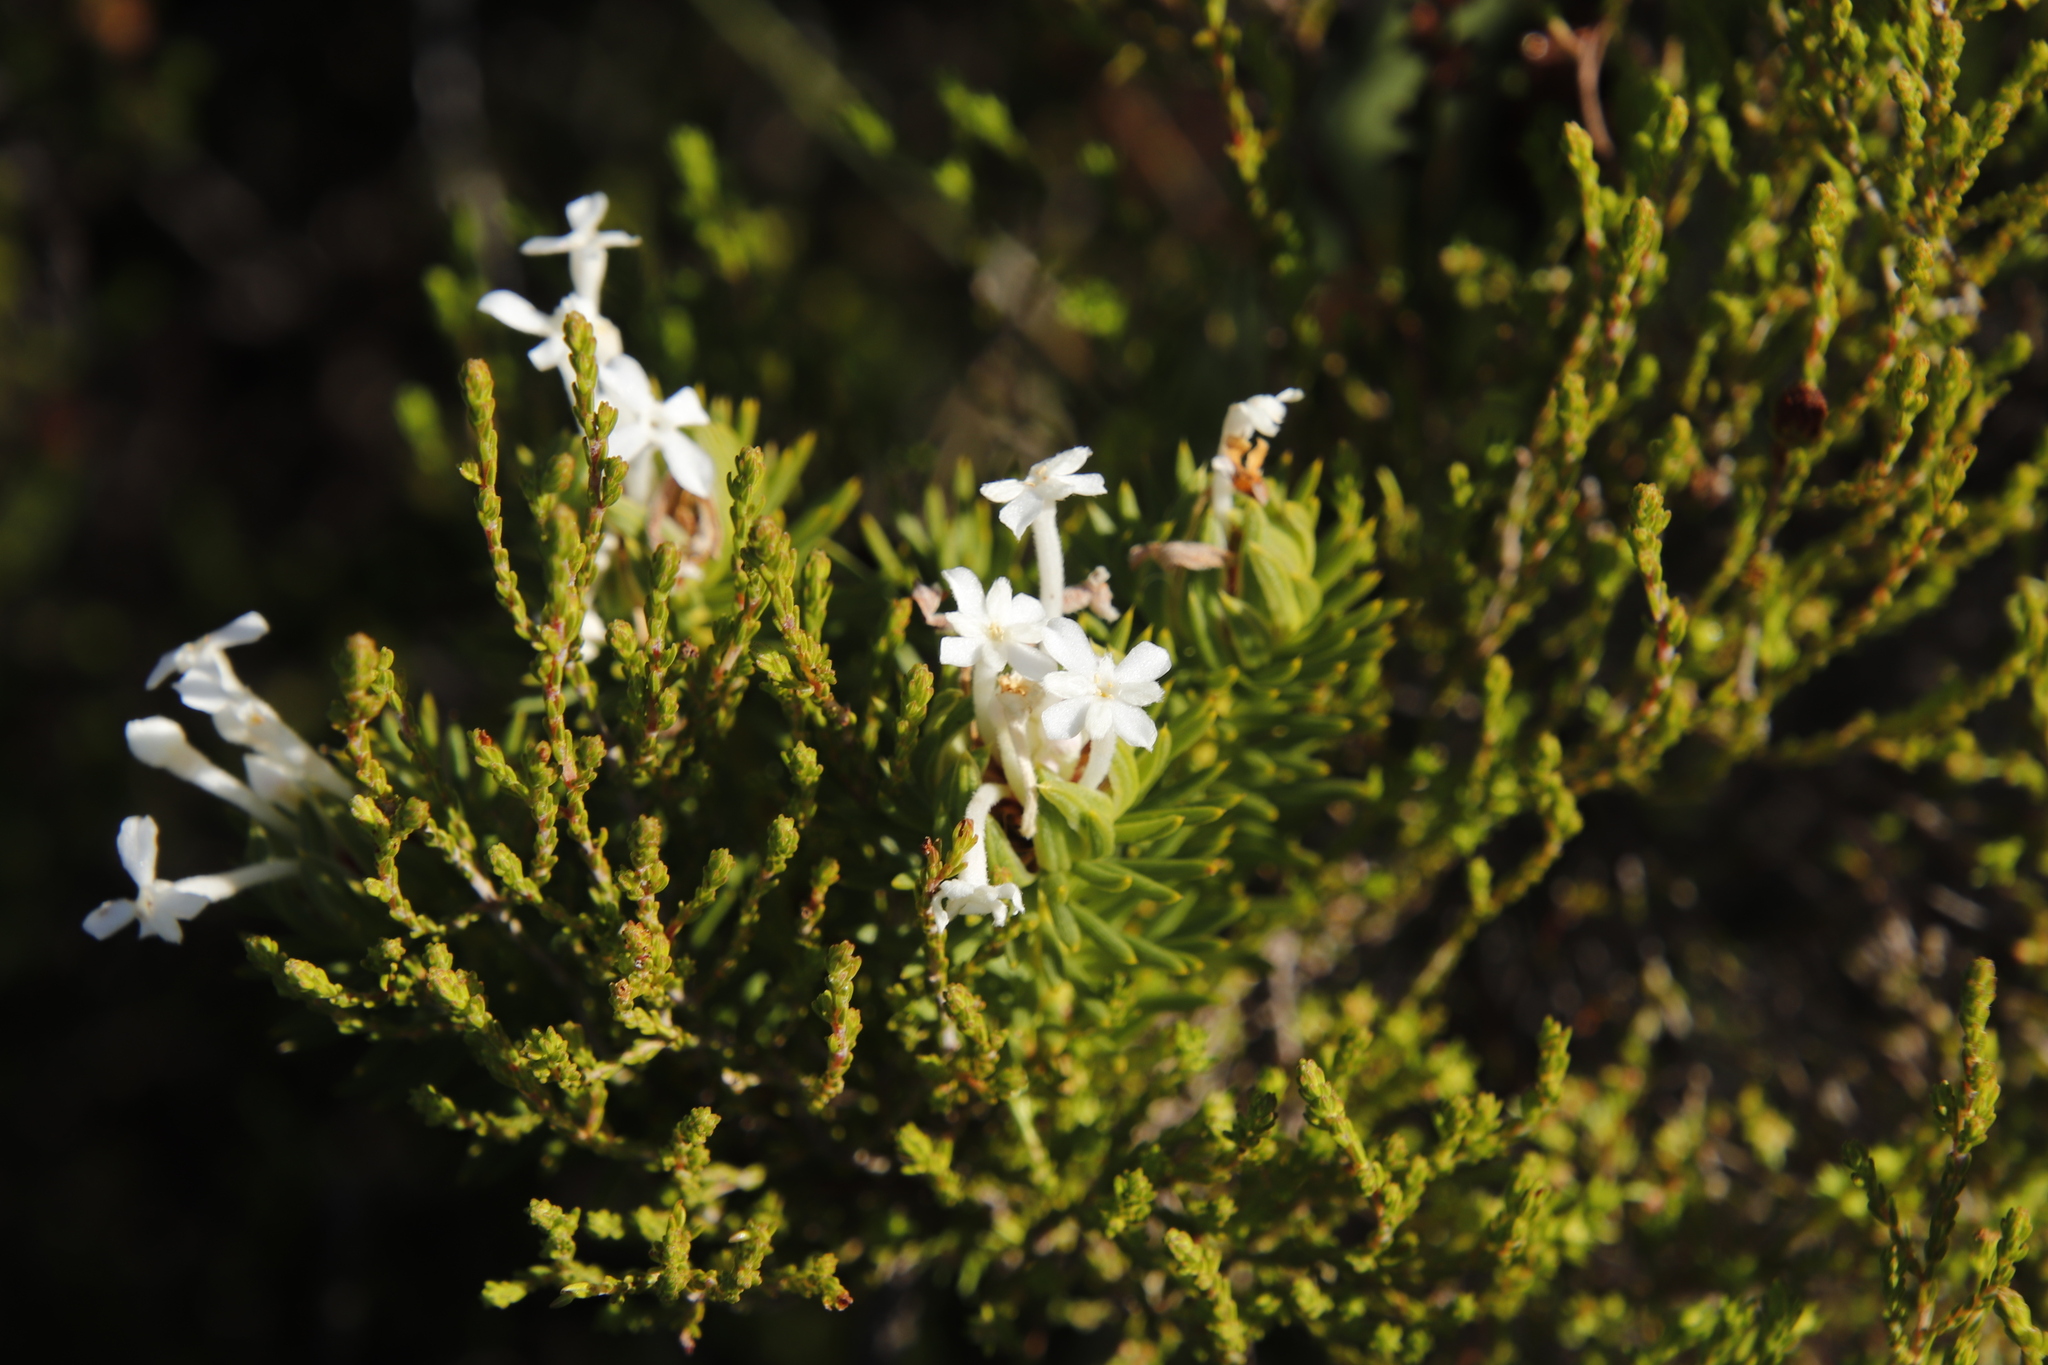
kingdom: Plantae
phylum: Tracheophyta
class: Magnoliopsida
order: Malvales
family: Thymelaeaceae
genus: Gnidia
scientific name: Gnidia pinifolia
